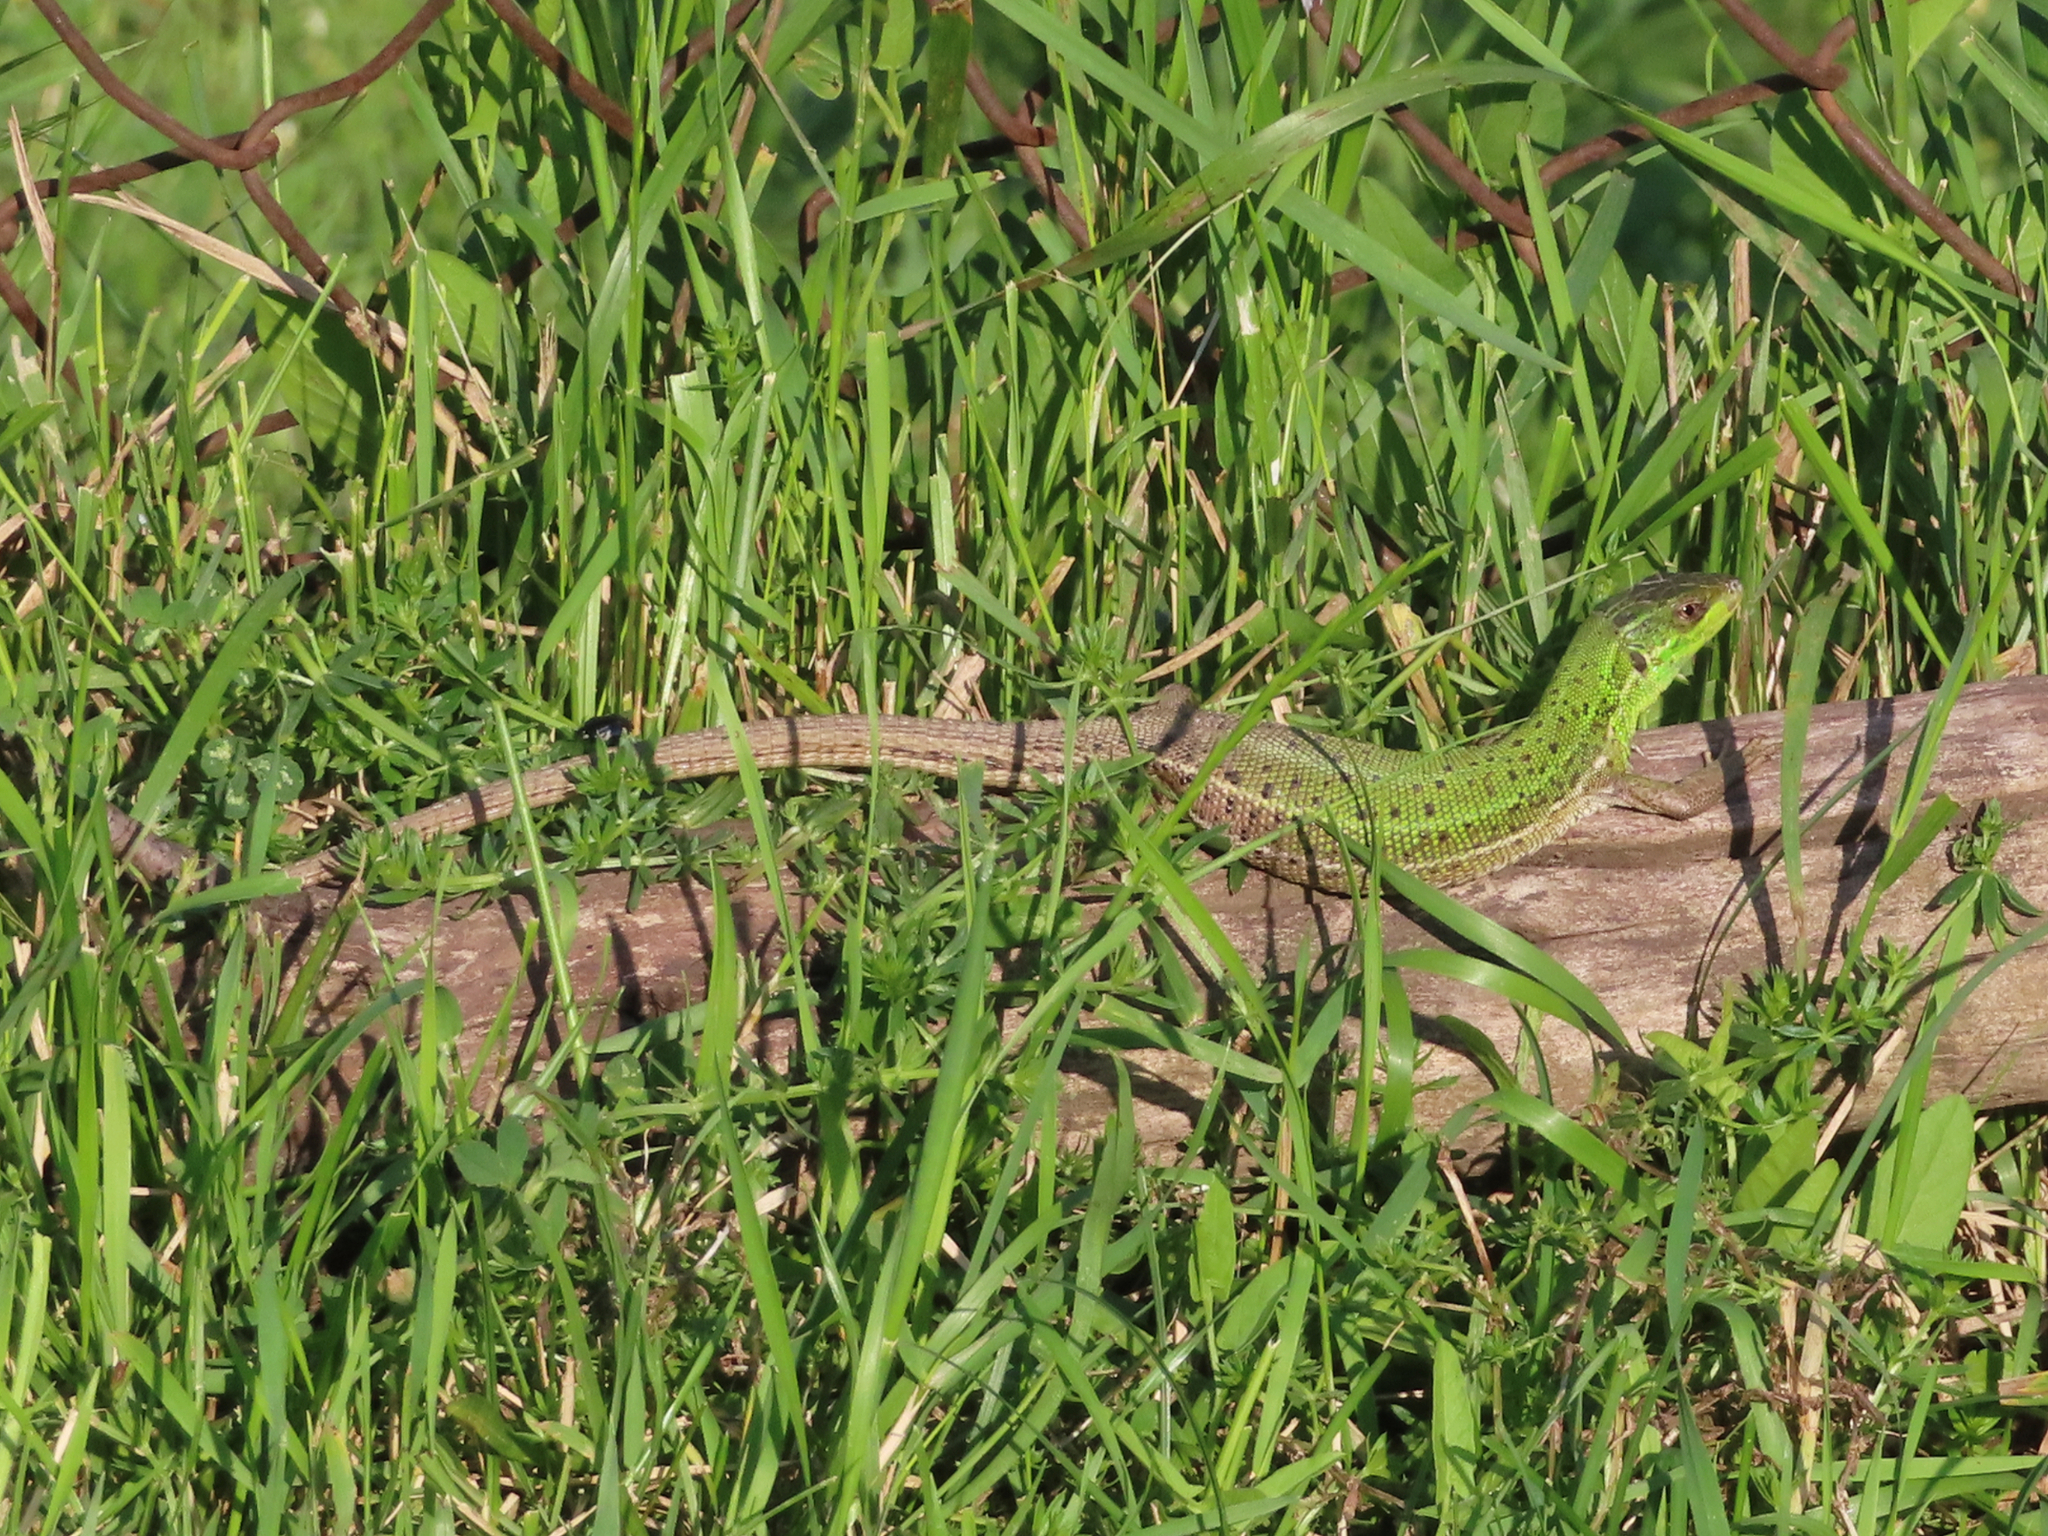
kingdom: Animalia
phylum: Chordata
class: Squamata
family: Lacertidae
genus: Lacerta
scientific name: Lacerta strigata
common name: Caspian green lizard
